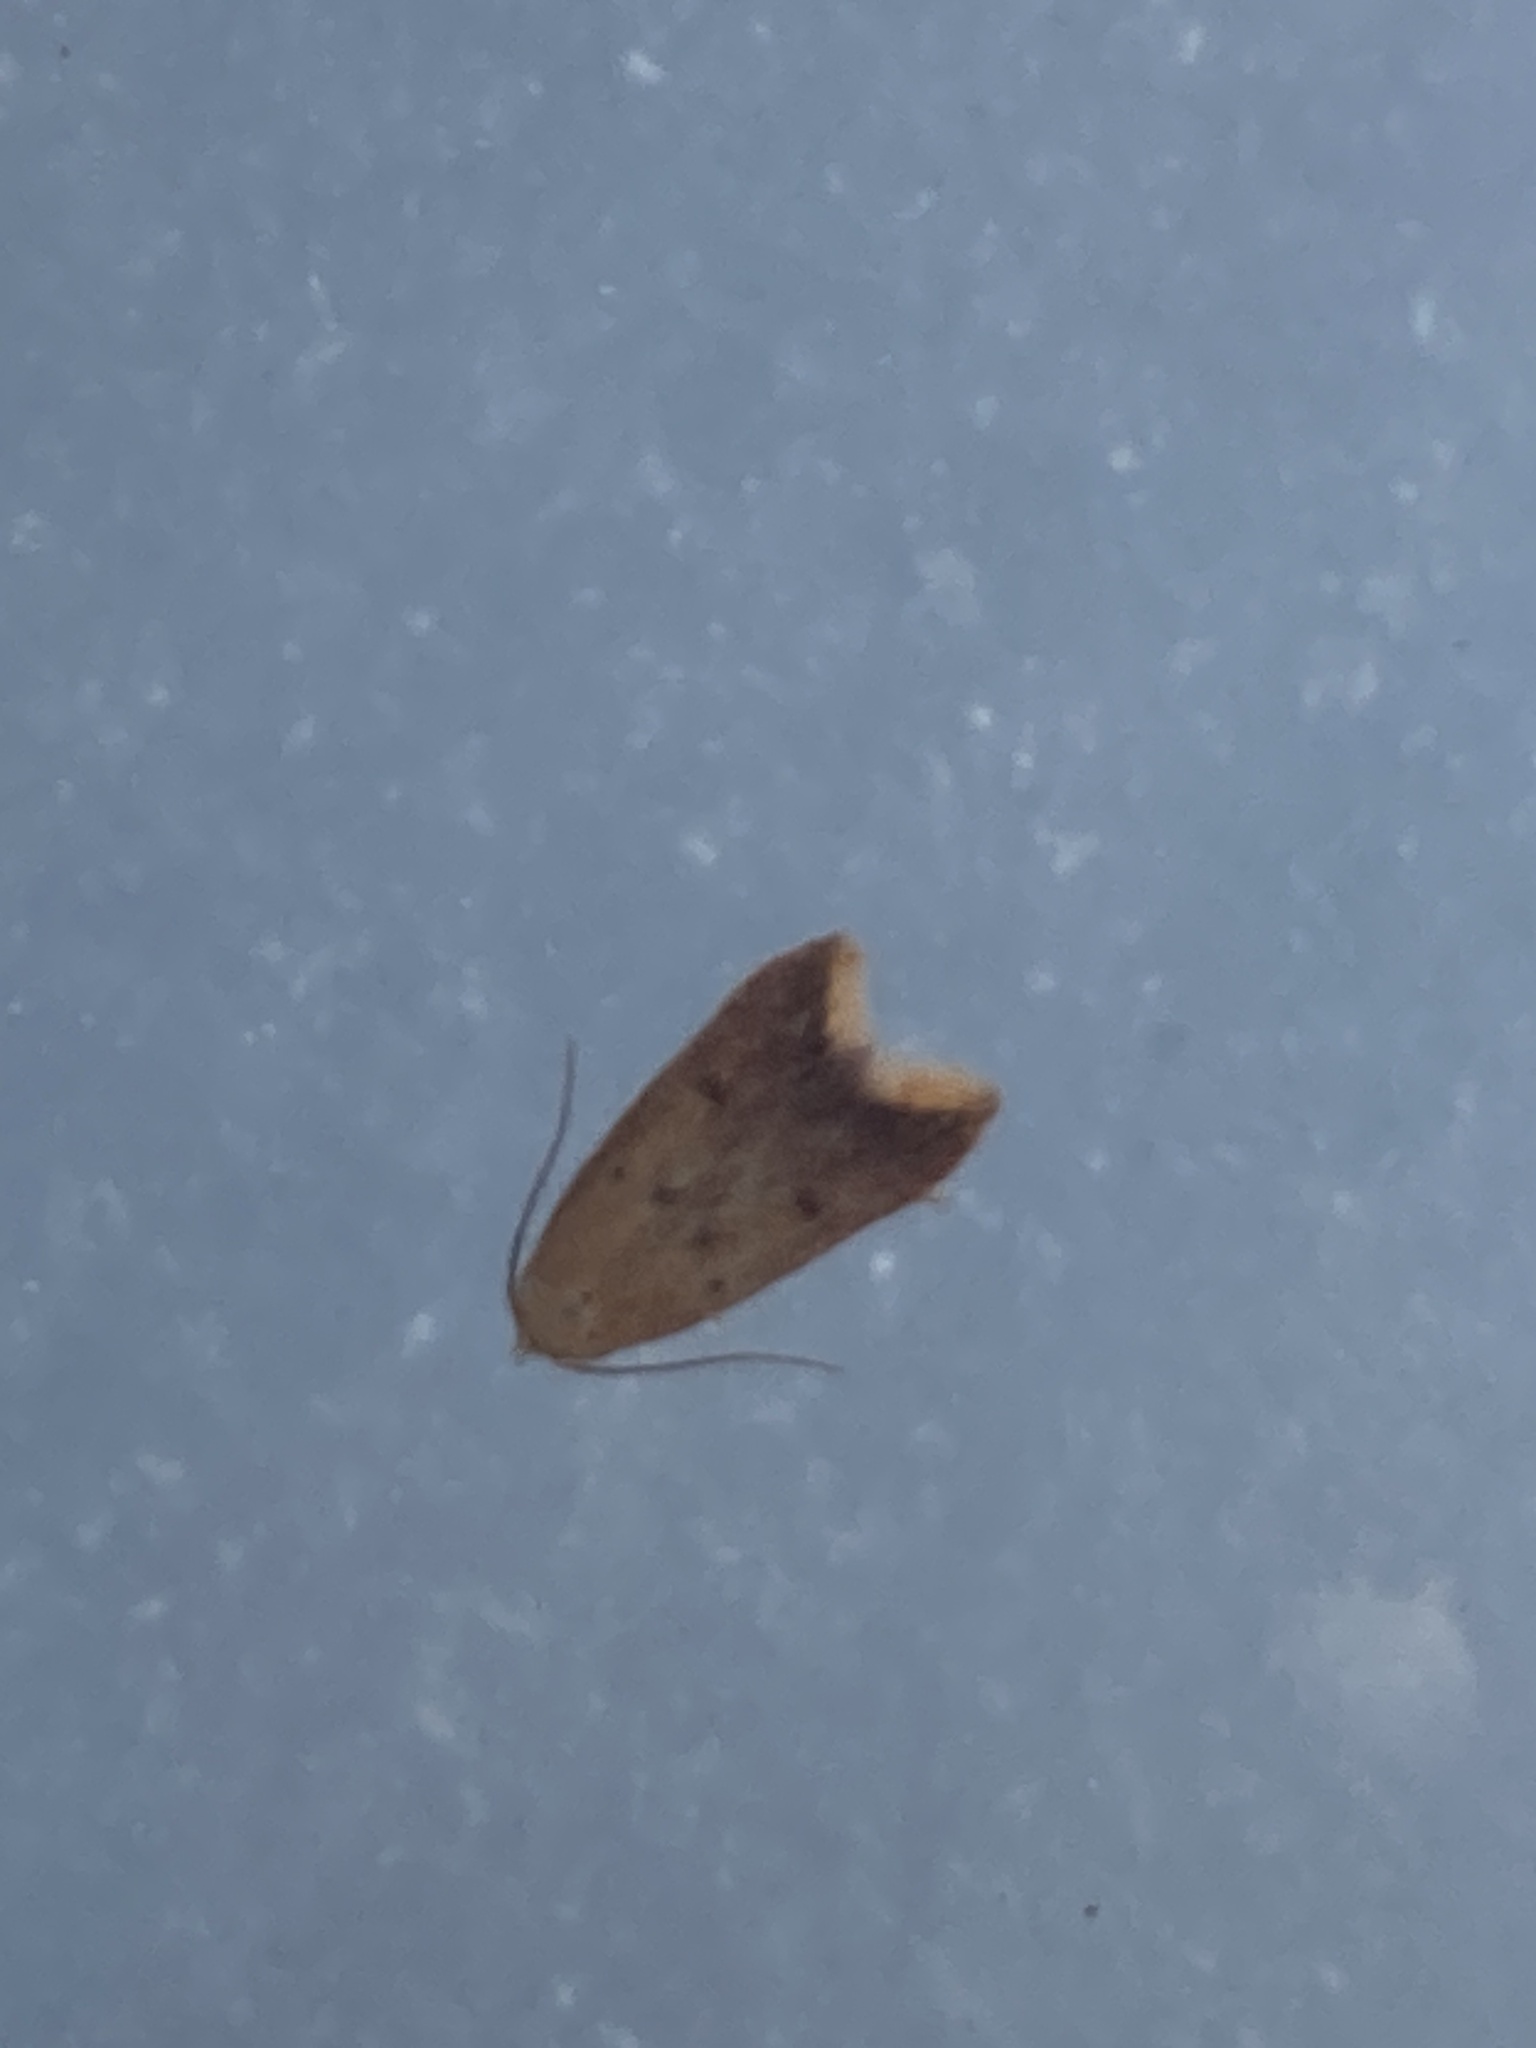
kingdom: Animalia
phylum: Arthropoda
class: Insecta
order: Lepidoptera
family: Oecophoridae
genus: Tachystola
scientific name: Tachystola acroxantha
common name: Ruddy streak
